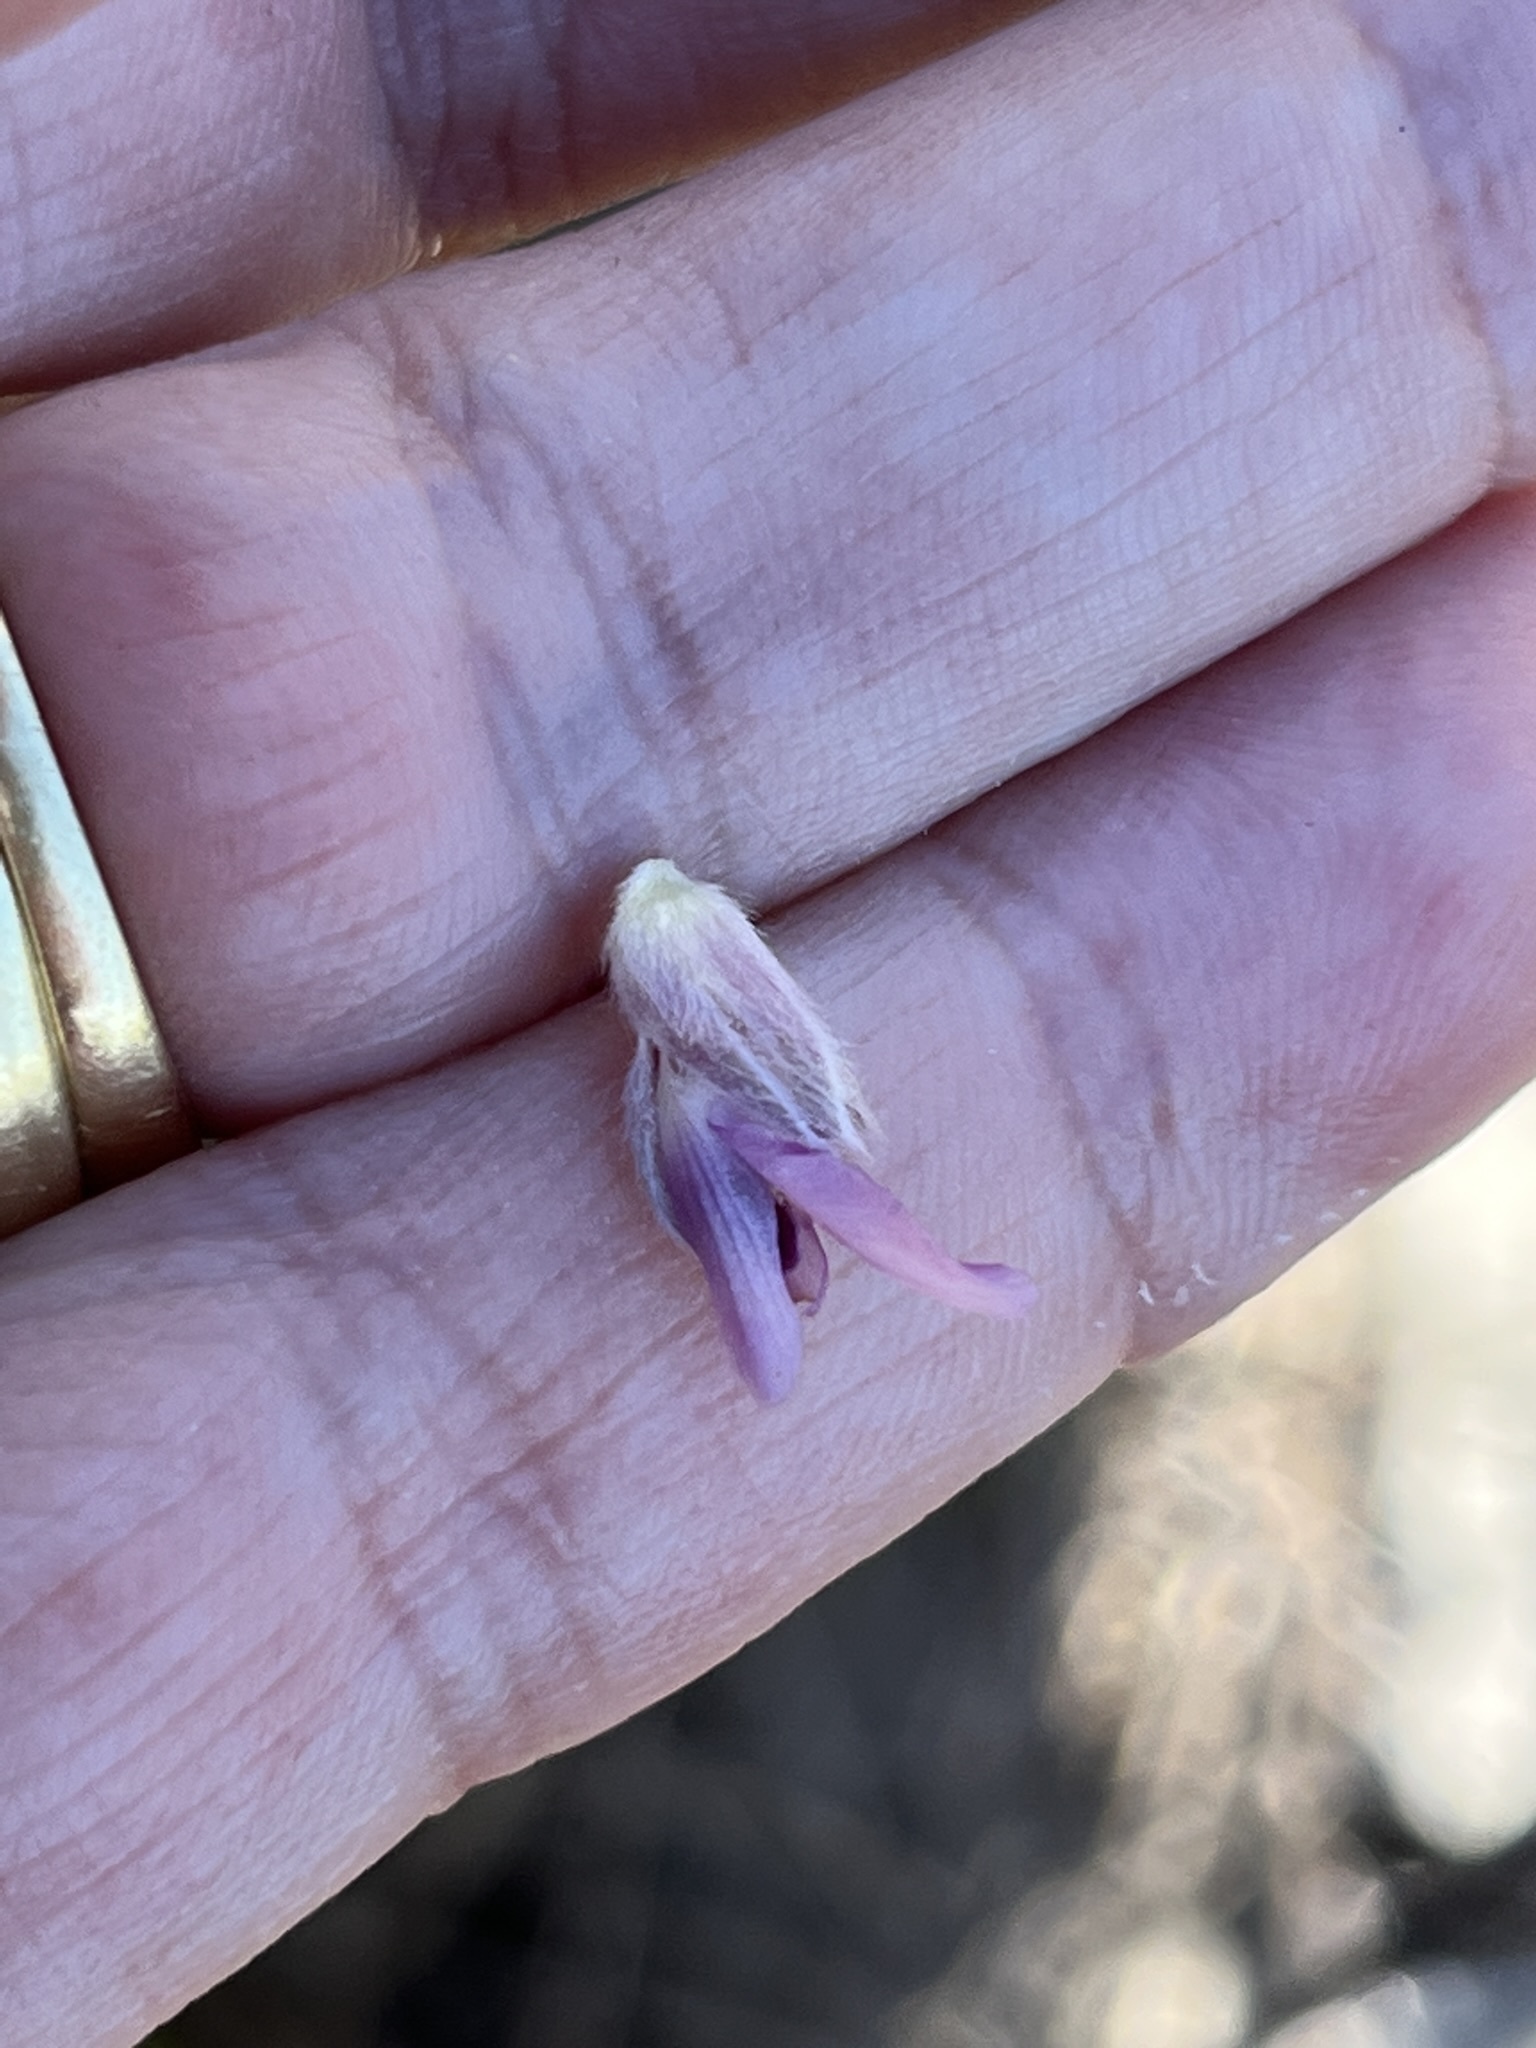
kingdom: Plantae
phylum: Tracheophyta
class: Magnoliopsida
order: Fabales
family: Fabaceae
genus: Amphithalea
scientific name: Amphithalea sericea
